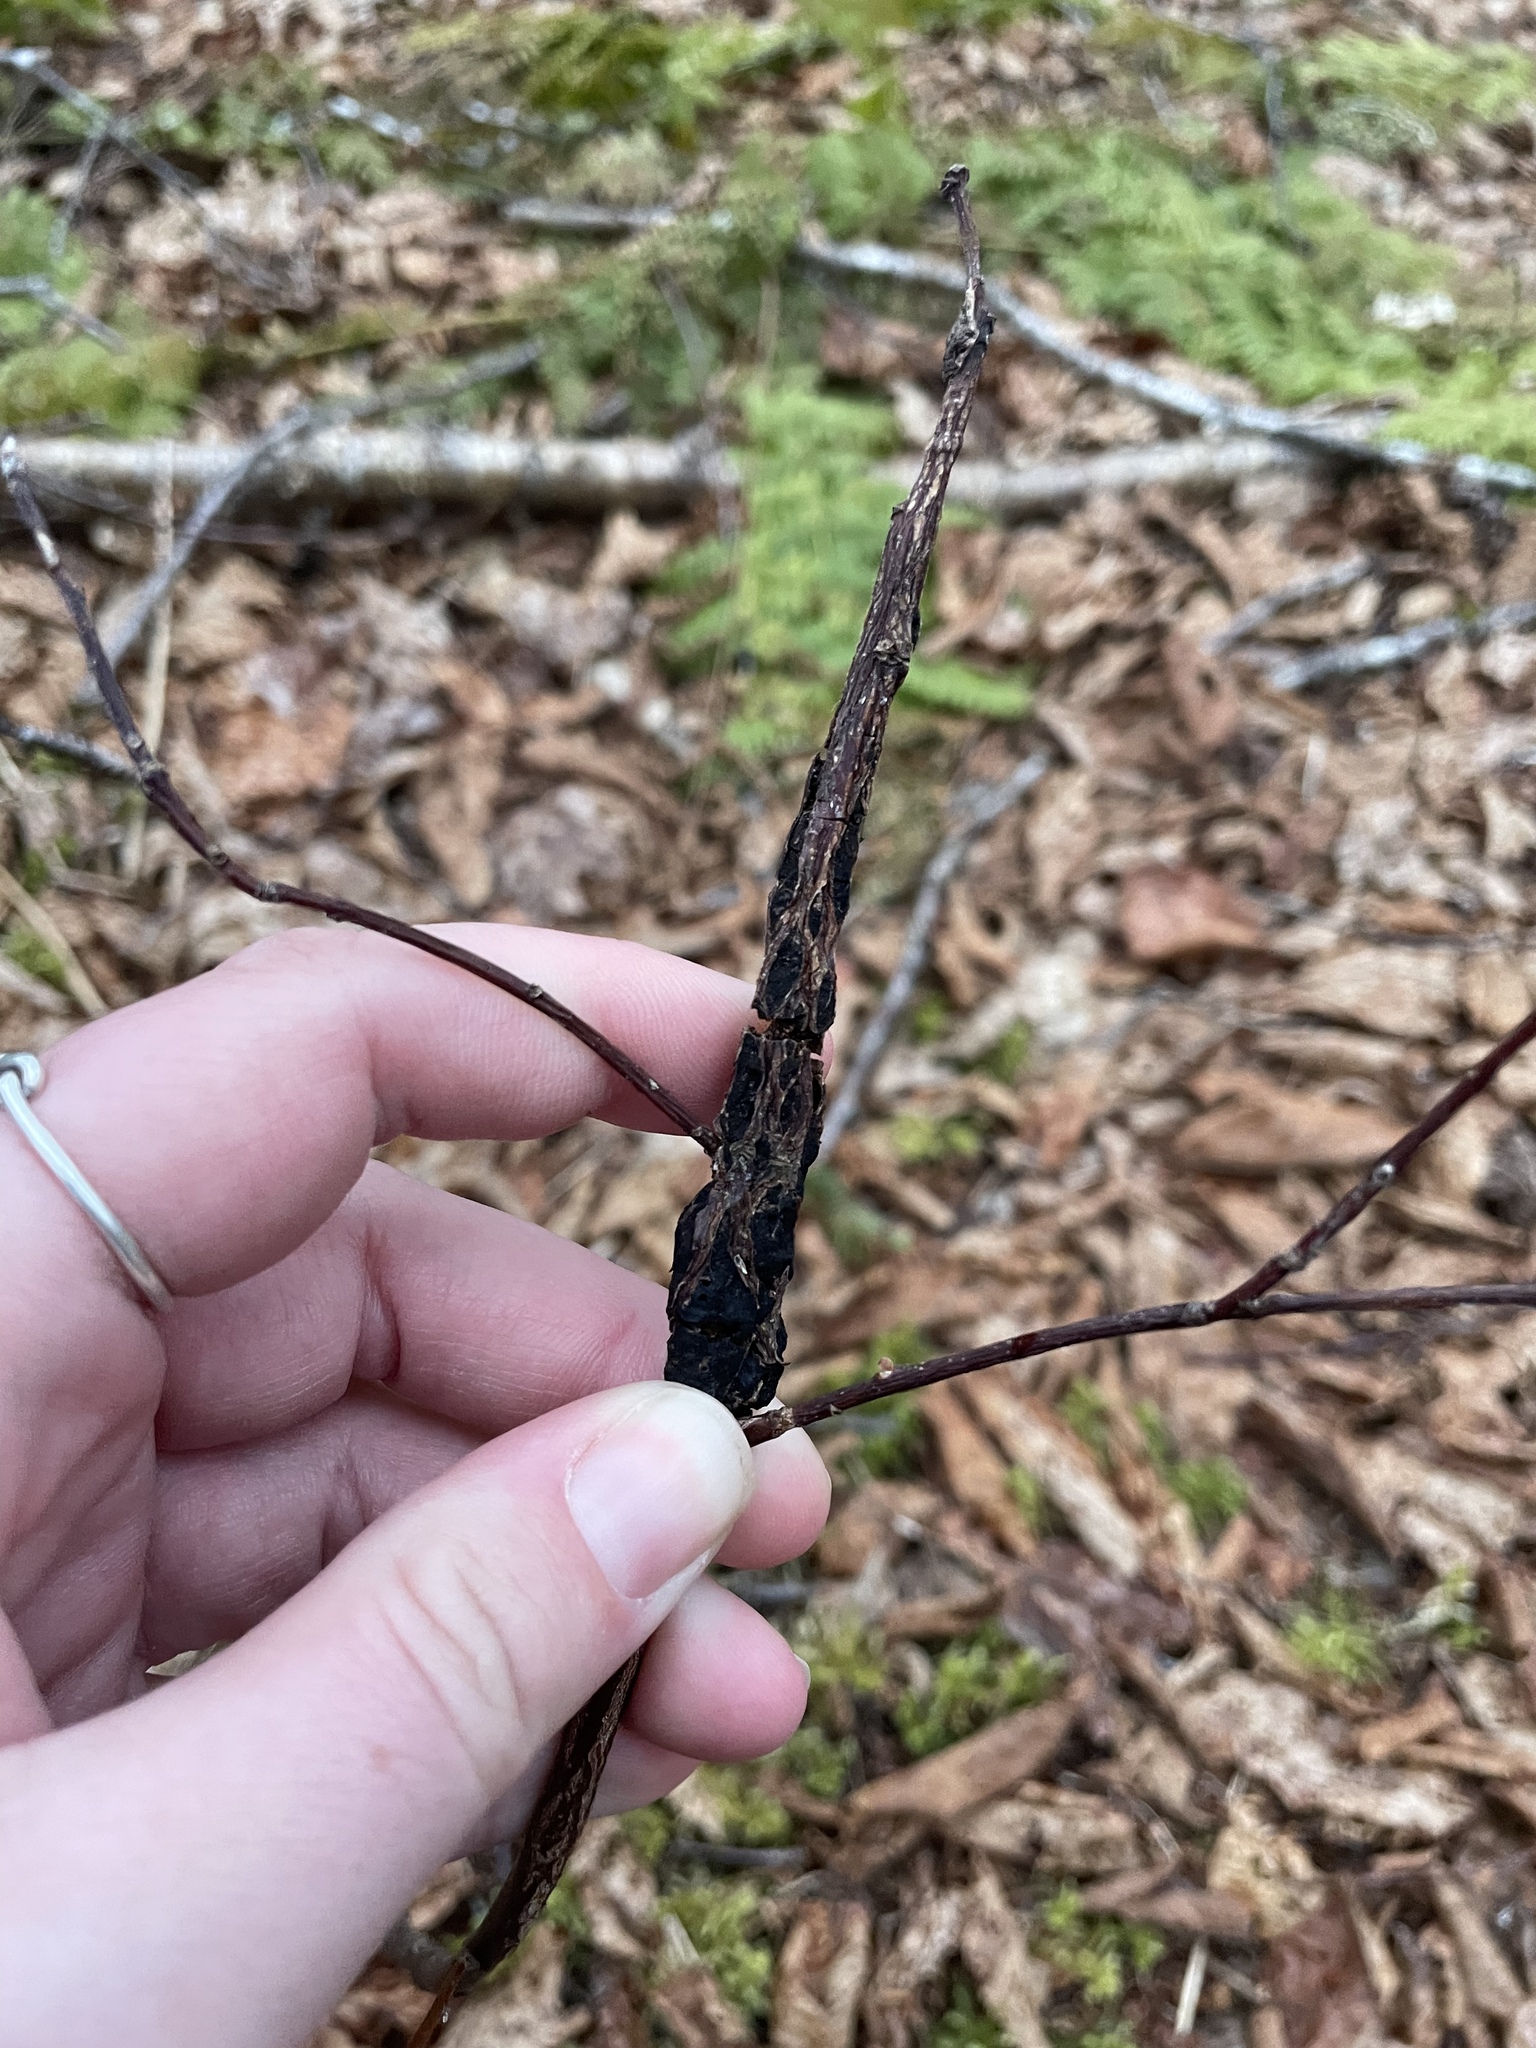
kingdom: Fungi
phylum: Ascomycota
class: Dothideomycetes
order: Venturiales
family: Venturiaceae
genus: Apiosporina
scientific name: Apiosporina morbosa
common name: Black knot
